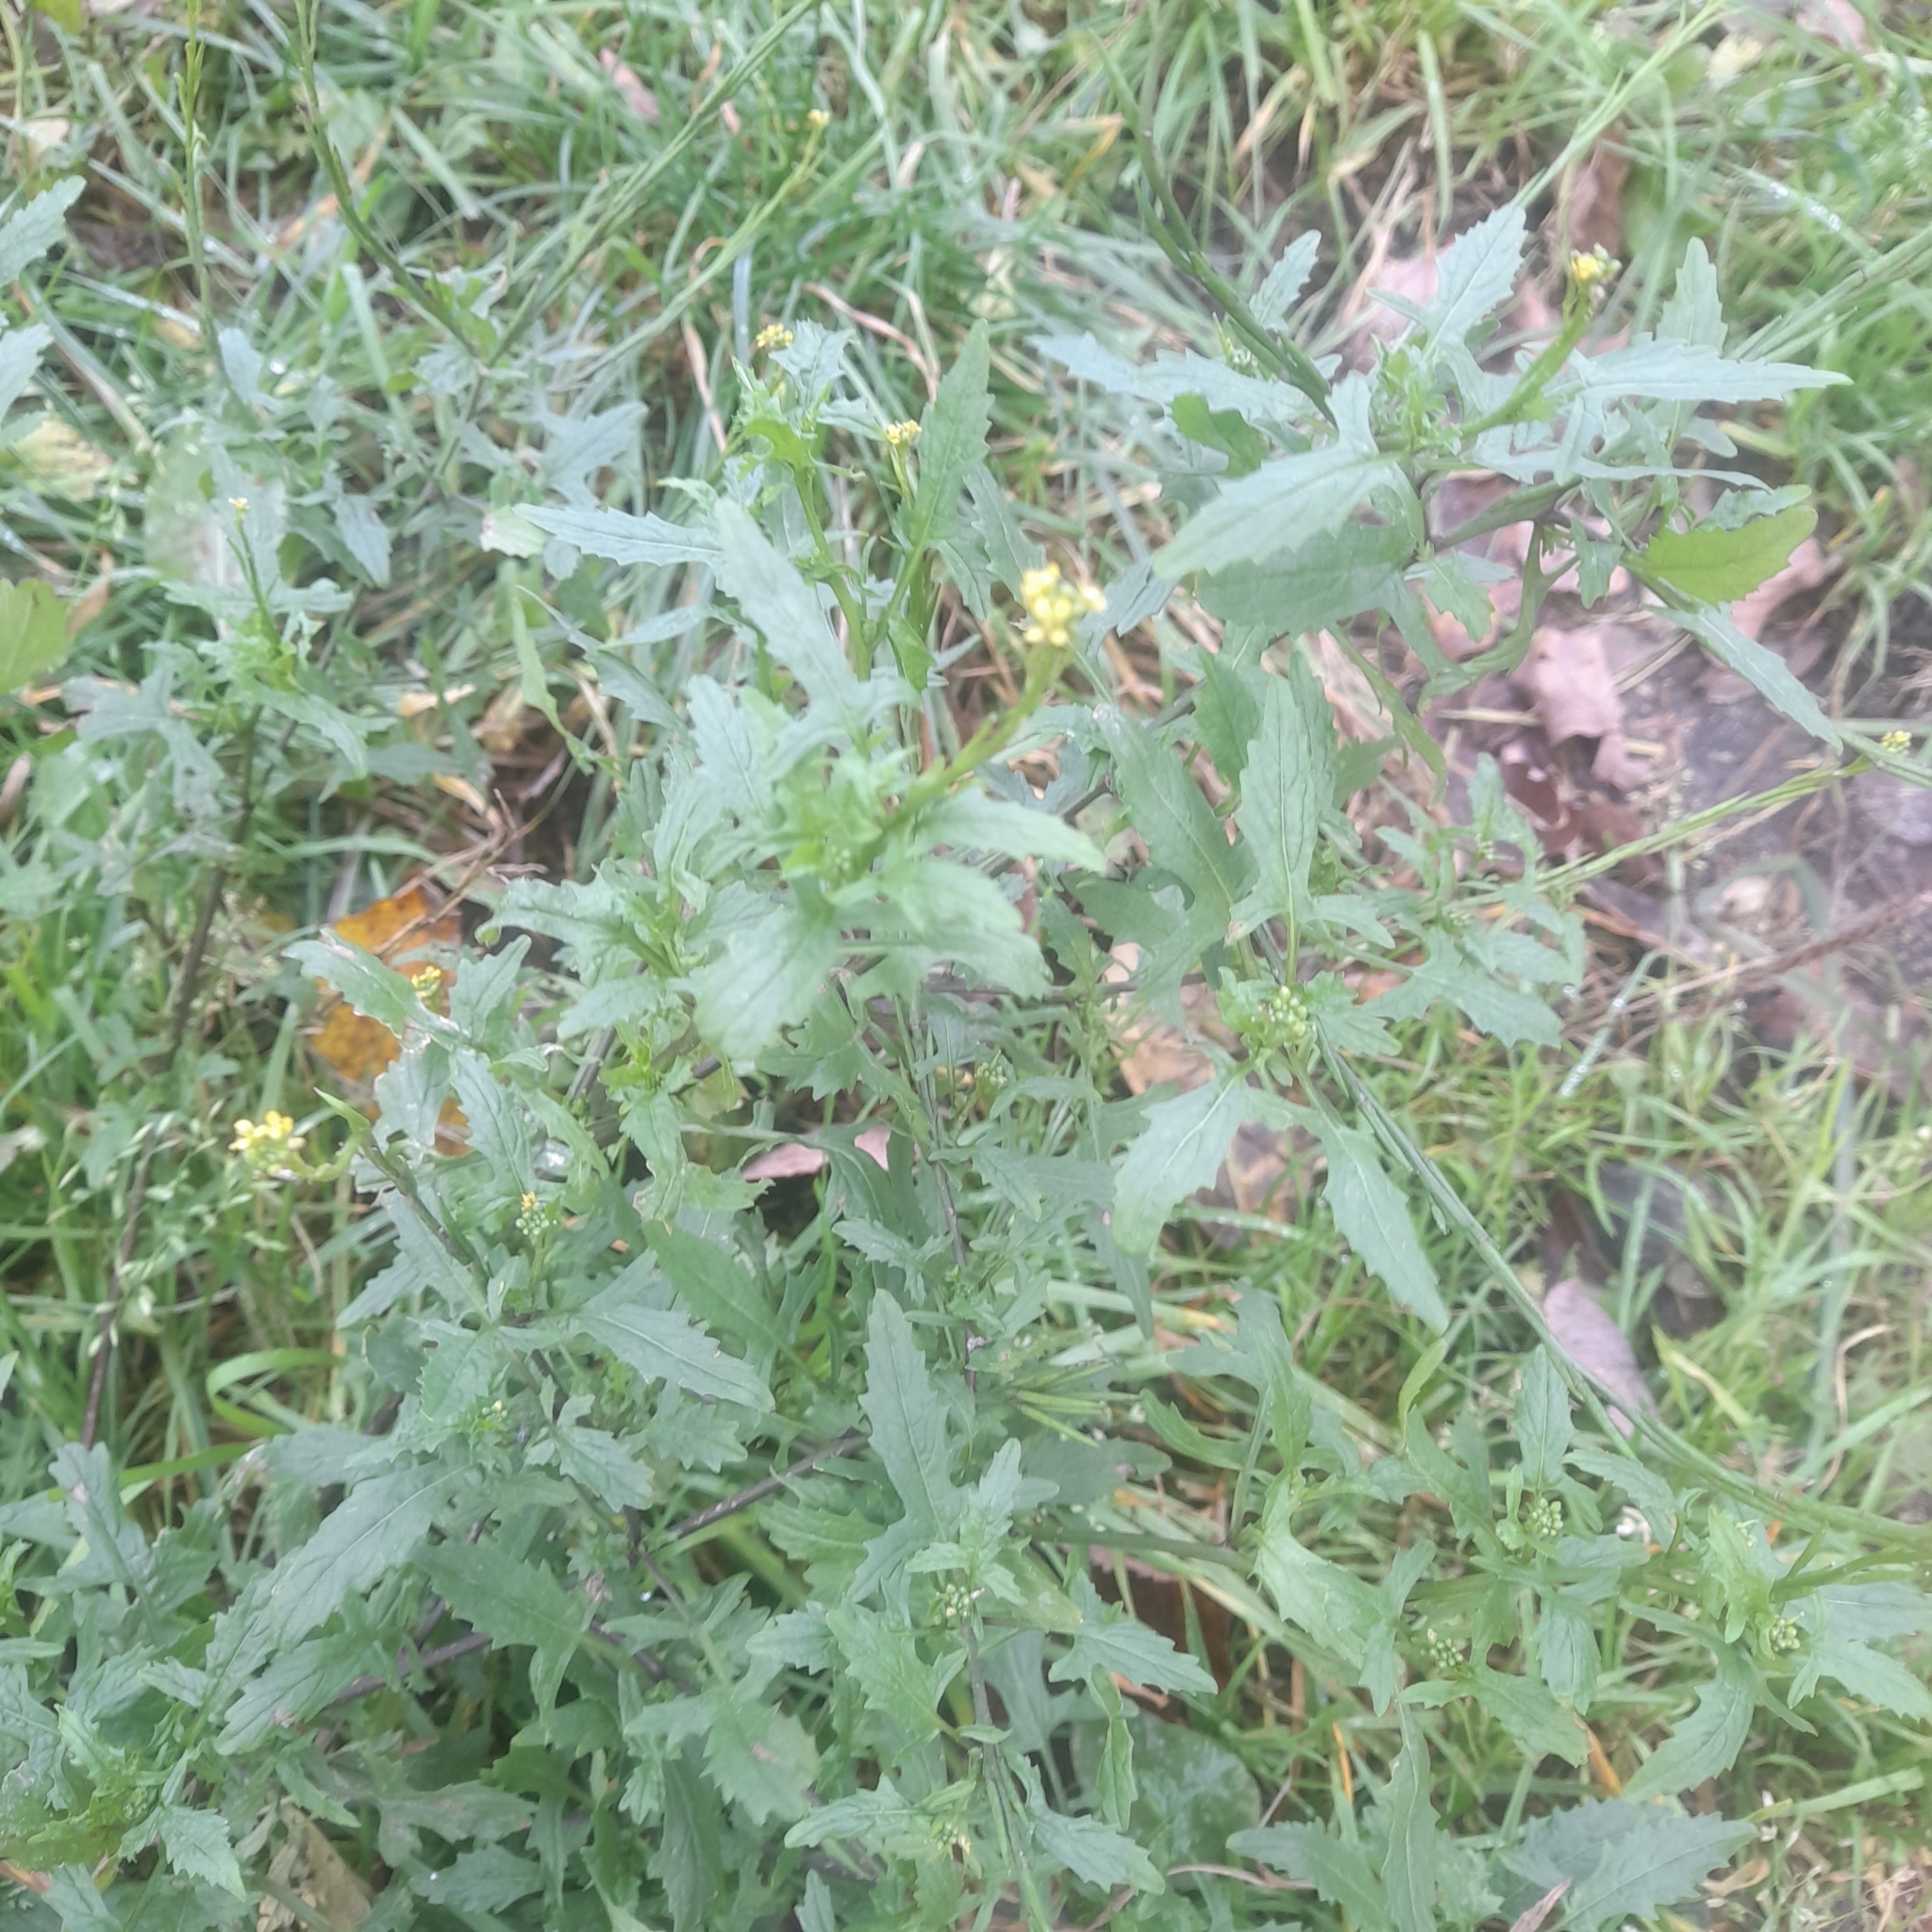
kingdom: Plantae
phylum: Tracheophyta
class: Magnoliopsida
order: Brassicales
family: Brassicaceae
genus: Sisymbrium
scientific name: Sisymbrium officinale
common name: Hedge mustard
